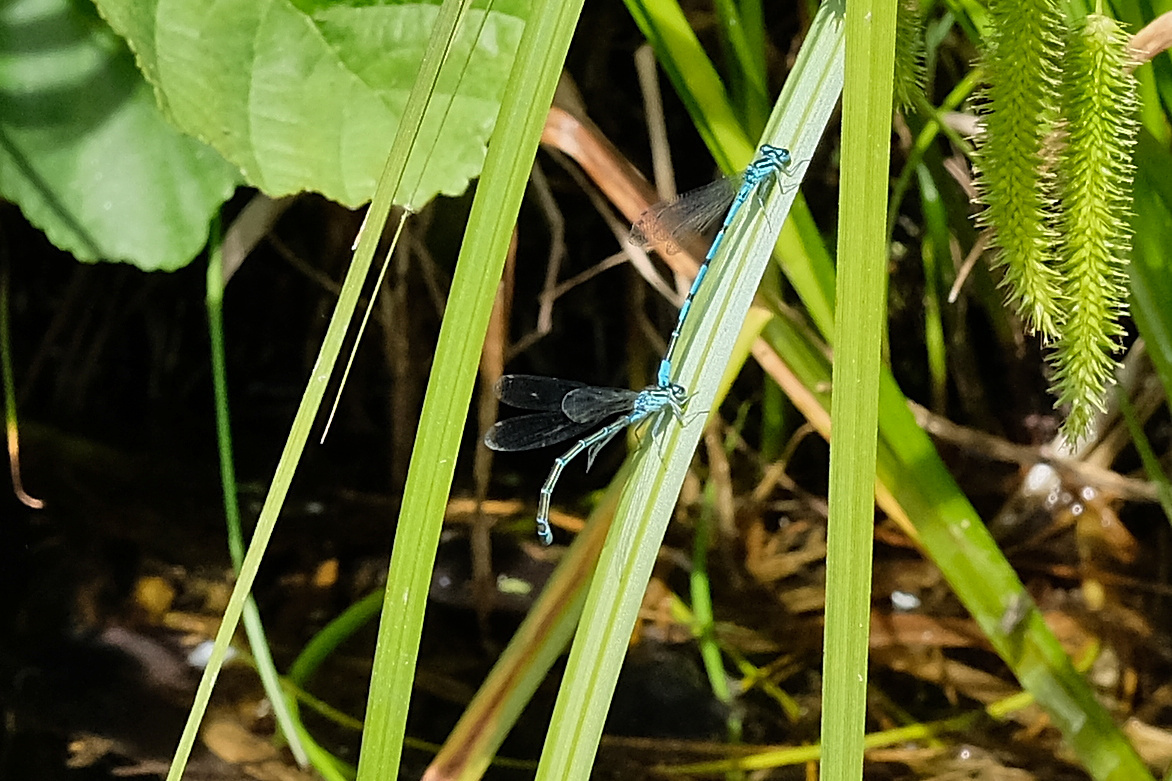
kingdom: Animalia
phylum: Arthropoda
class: Insecta
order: Odonata
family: Coenagrionidae
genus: Coenagrion
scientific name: Coenagrion puella
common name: Azure damselfly
